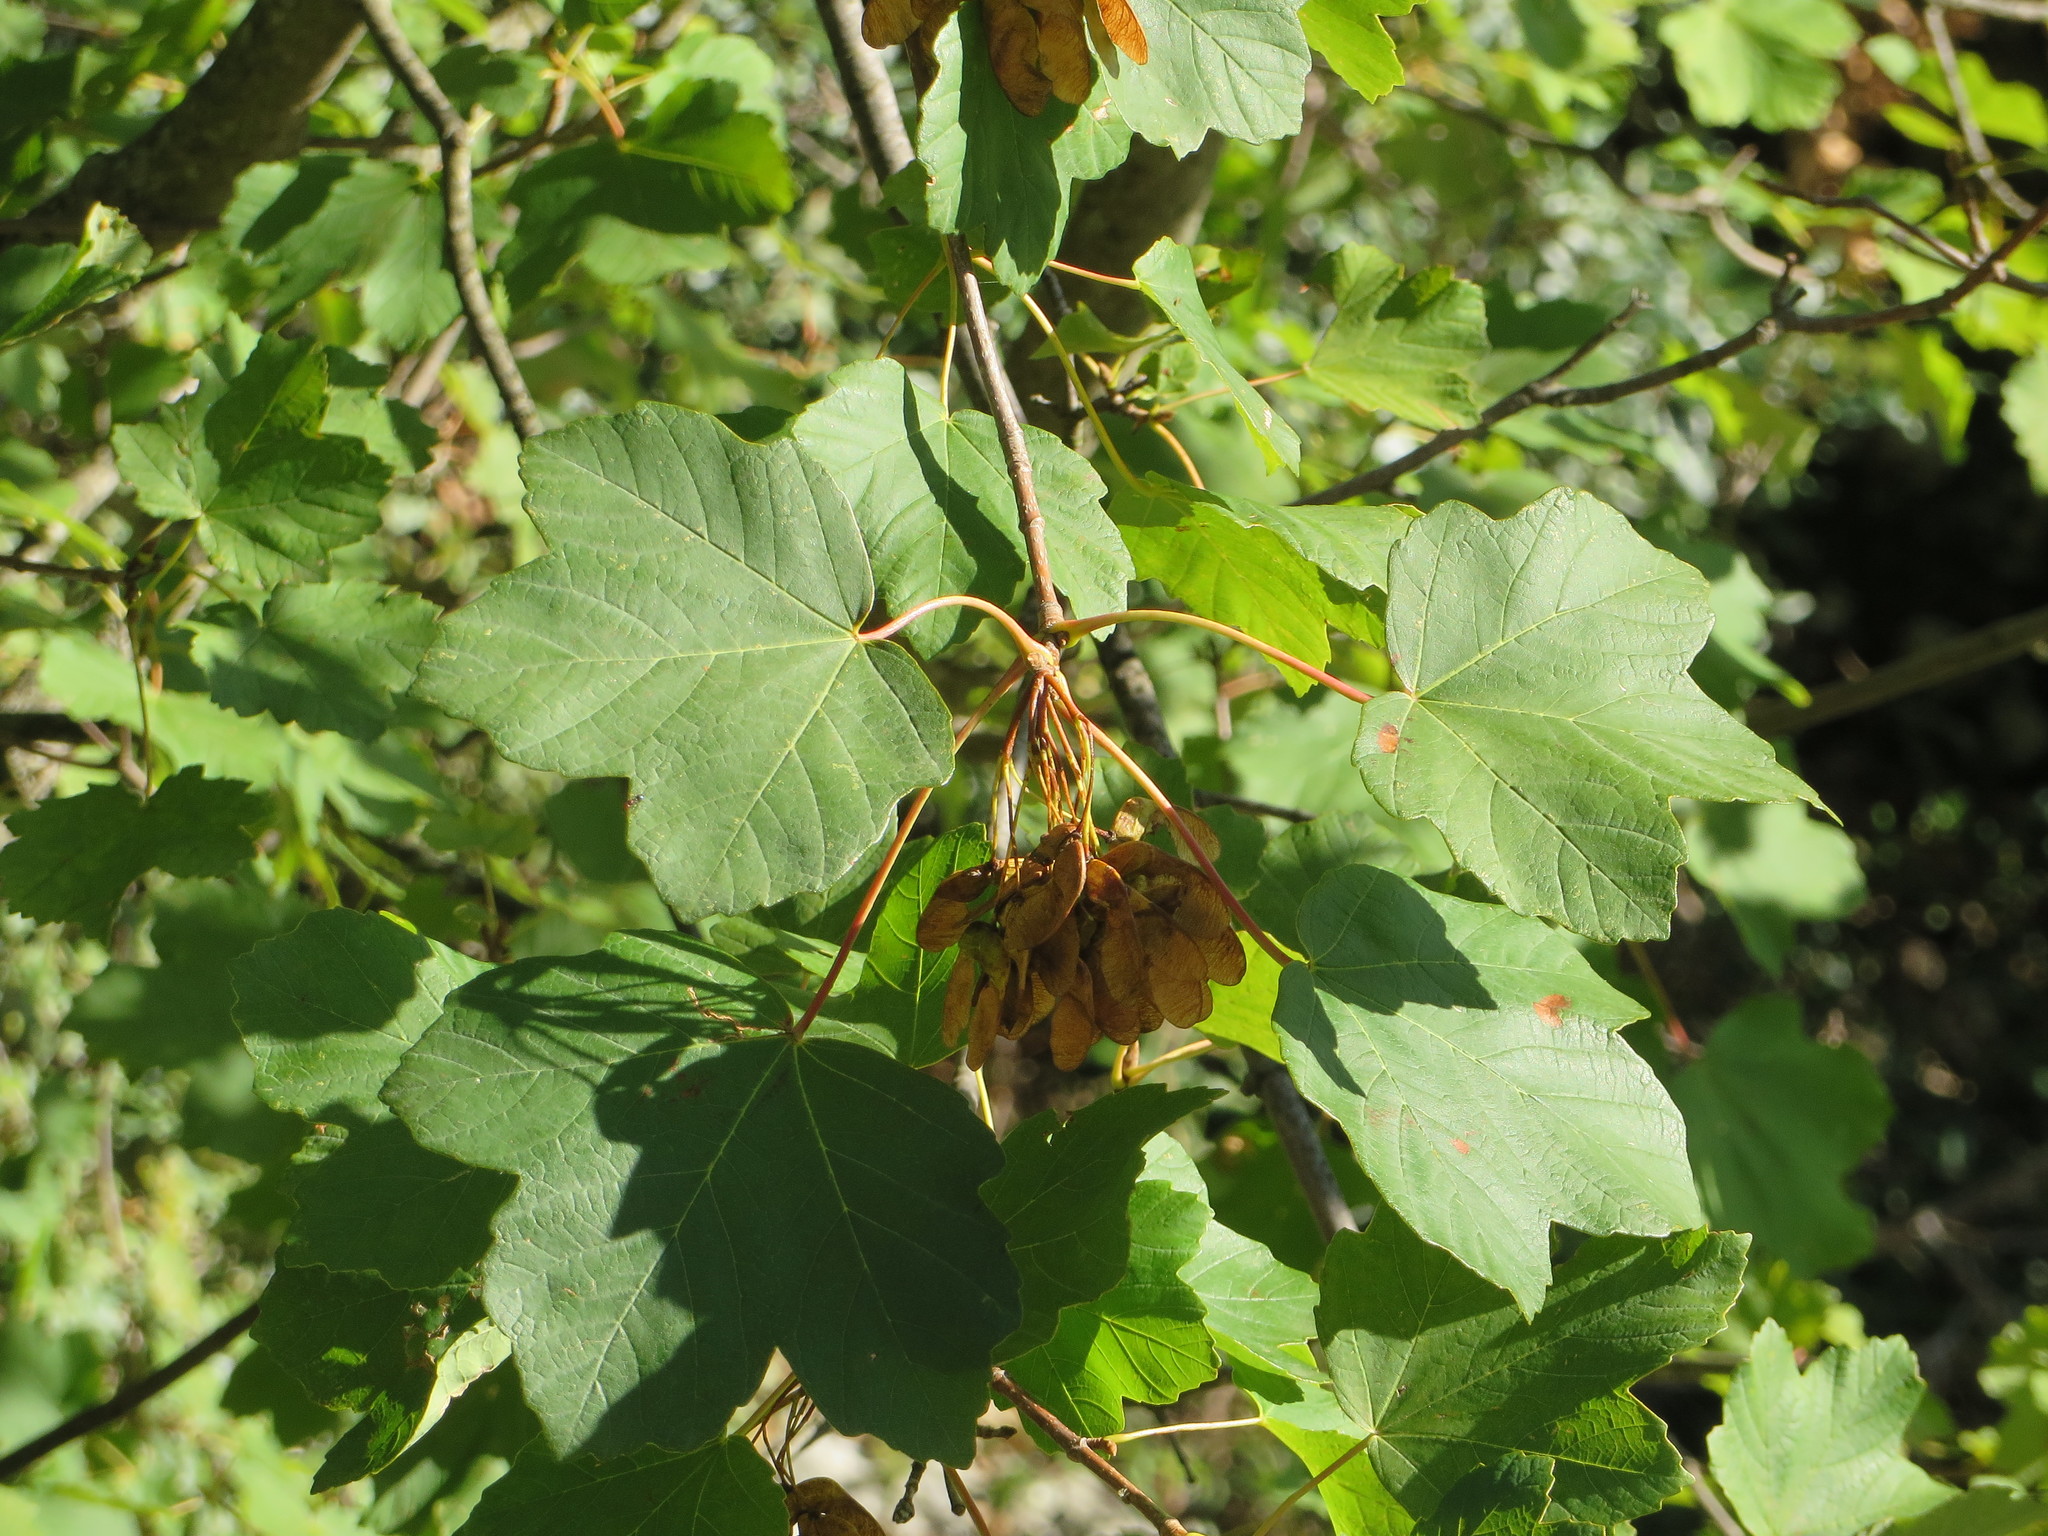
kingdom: Plantae
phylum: Tracheophyta
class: Magnoliopsida
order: Sapindales
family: Sapindaceae
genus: Acer
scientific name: Acer opalus
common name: Italian maple
